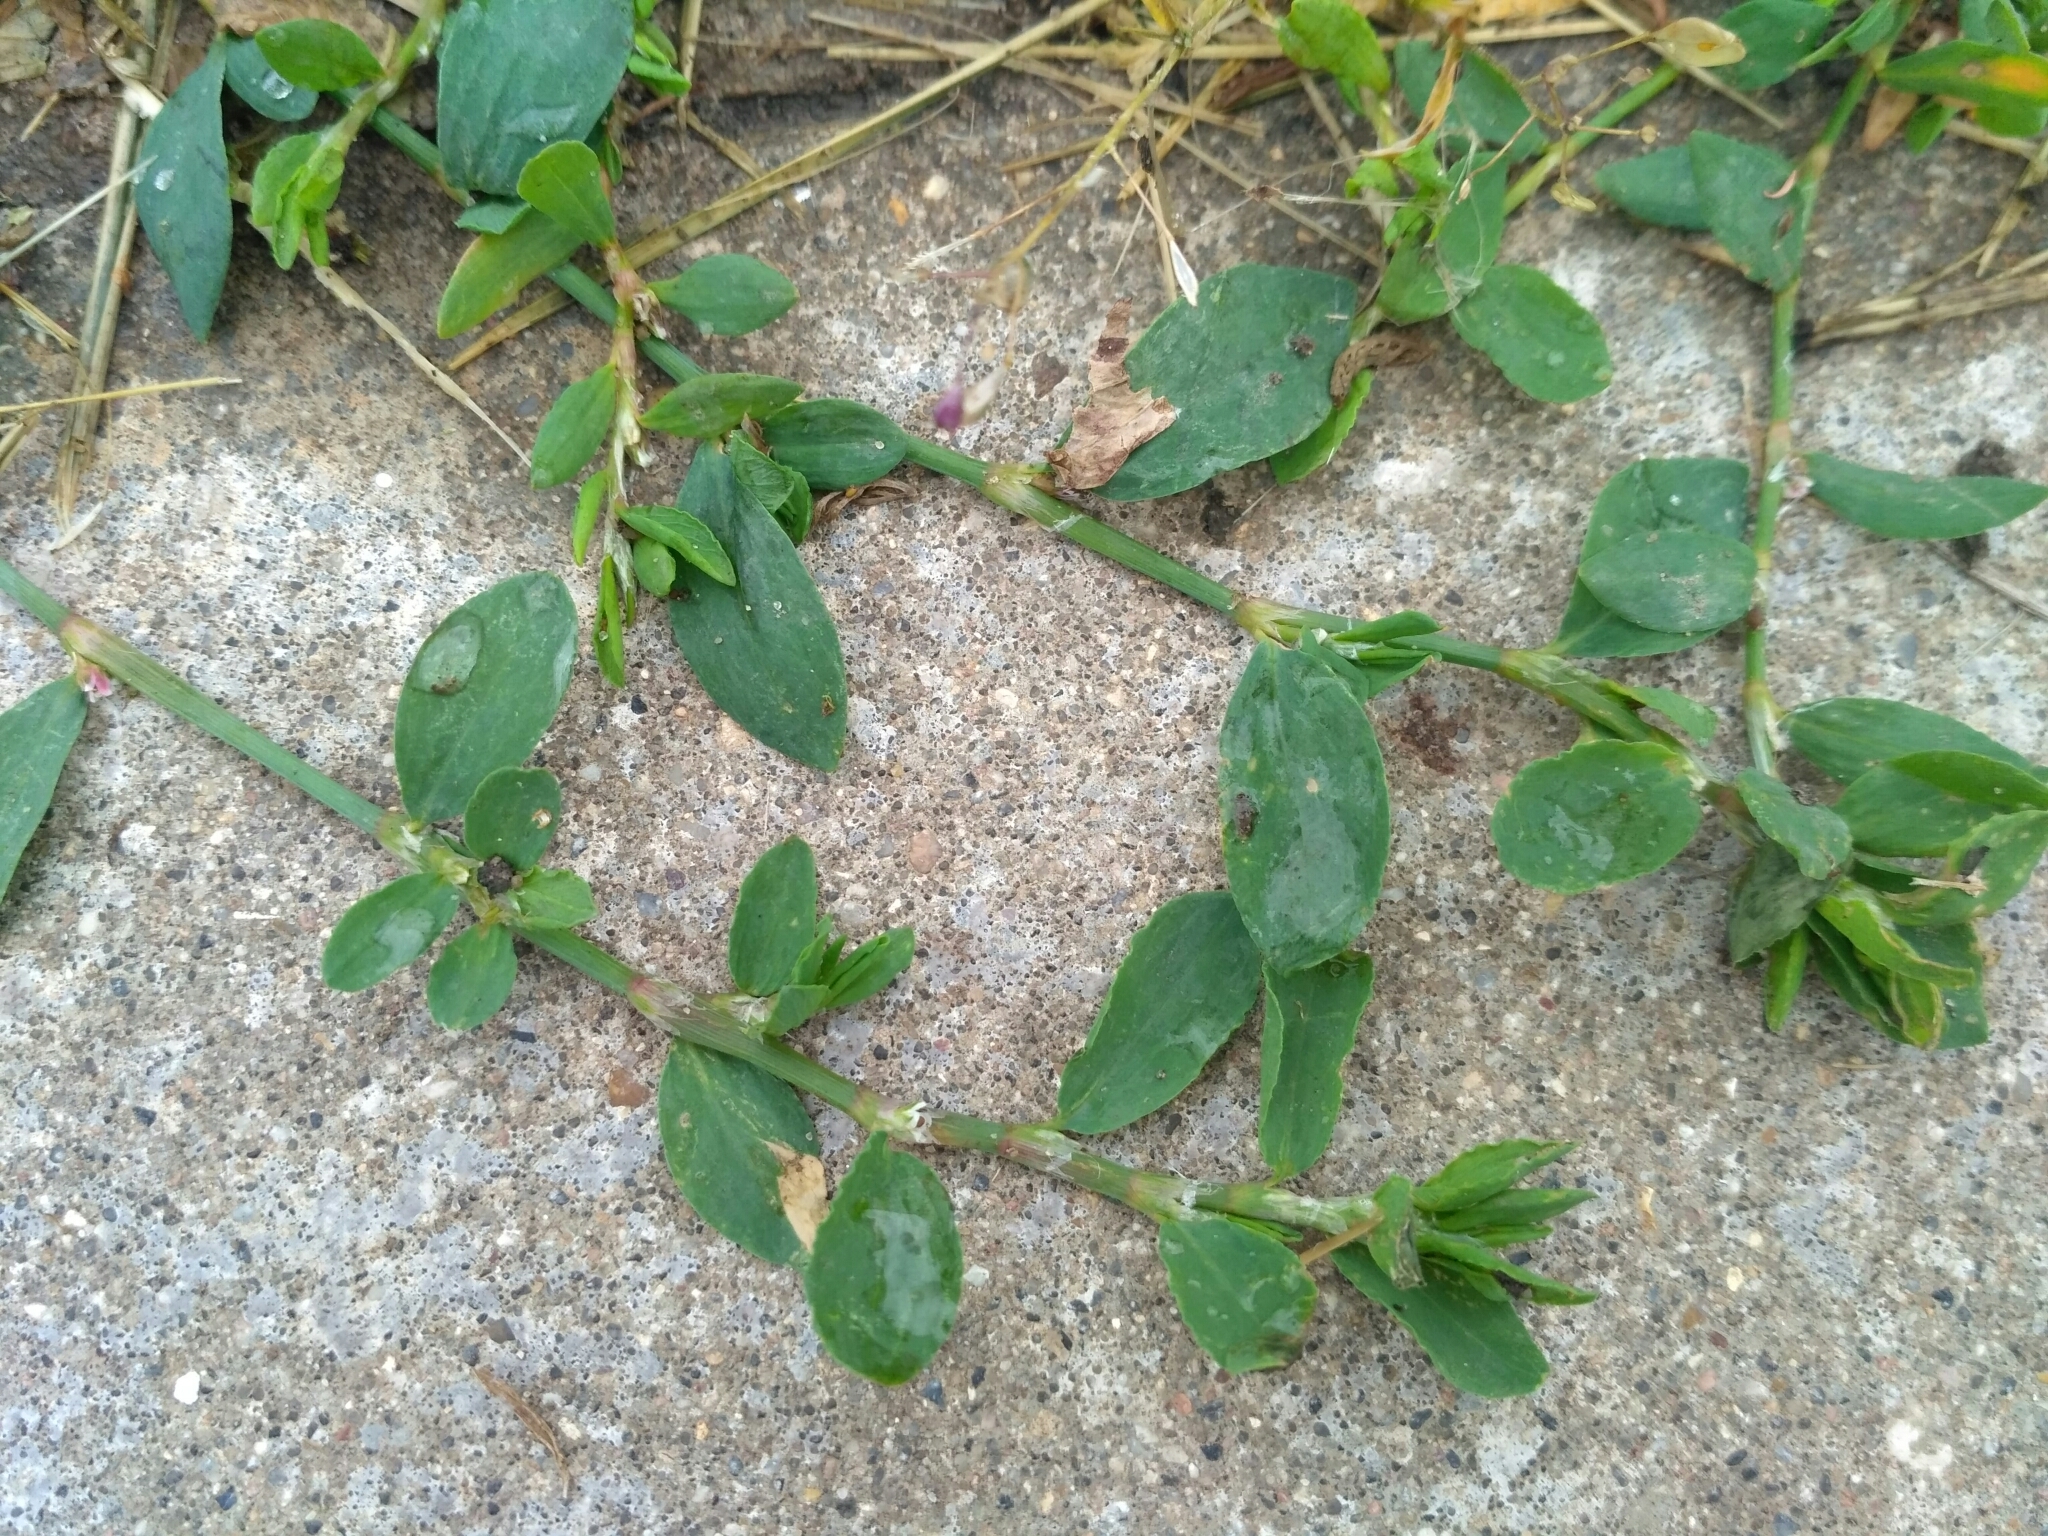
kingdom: Plantae
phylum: Tracheophyta
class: Magnoliopsida
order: Caryophyllales
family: Polygonaceae
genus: Polygonum
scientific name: Polygonum
